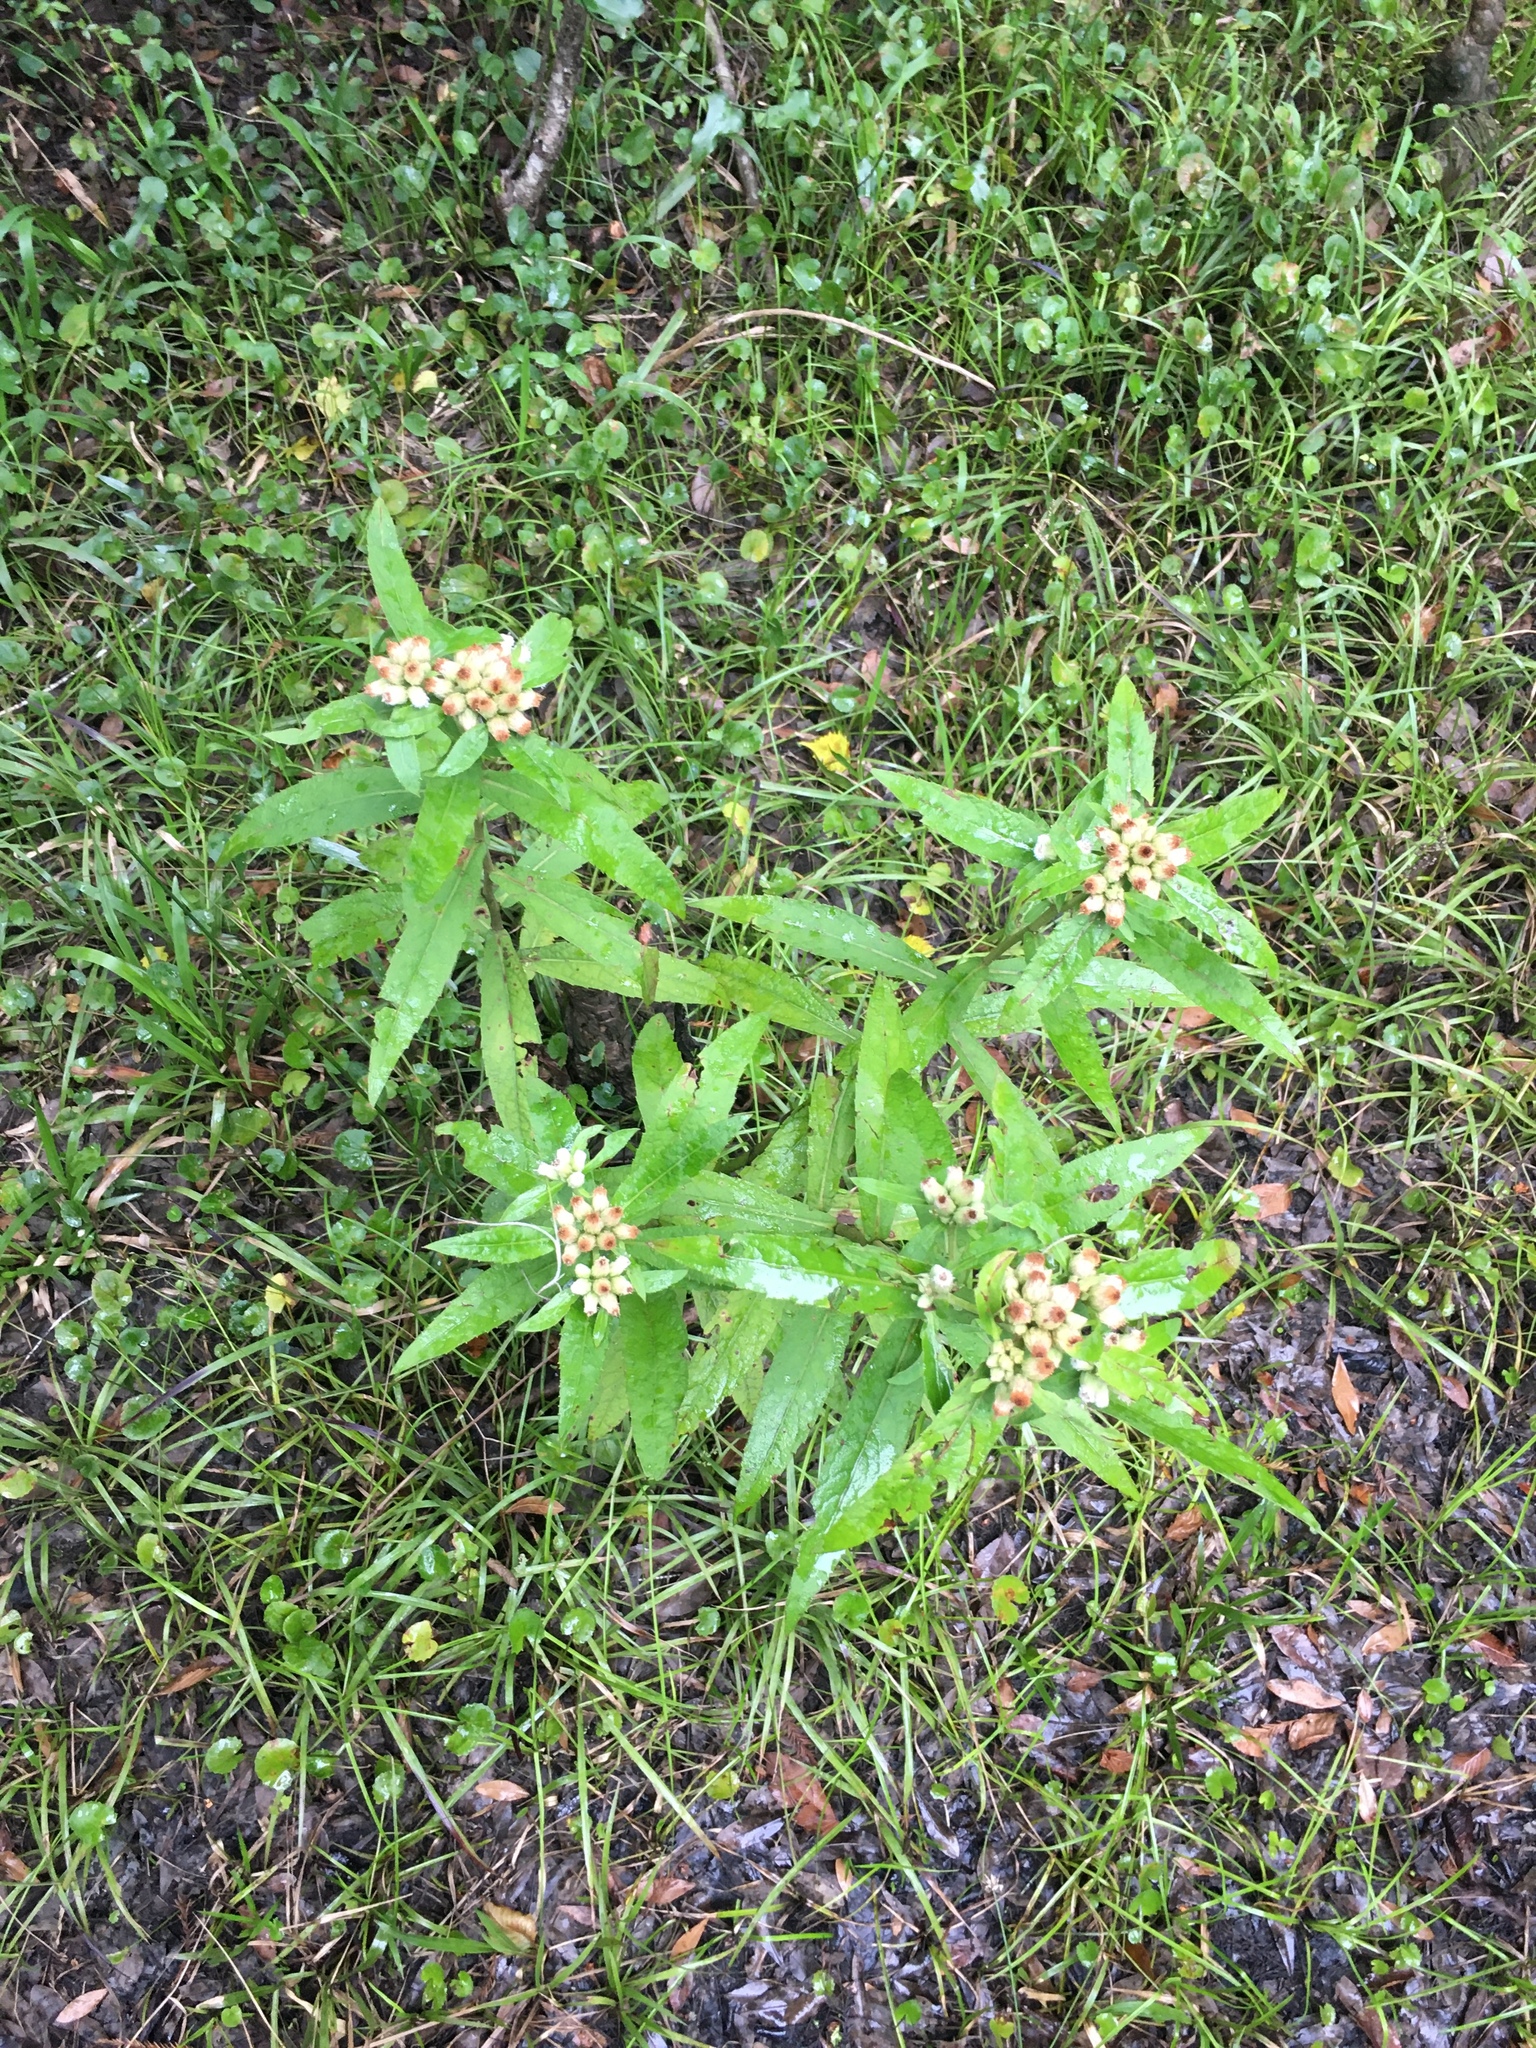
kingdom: Plantae
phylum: Tracheophyta
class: Magnoliopsida
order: Asterales
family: Asteraceae
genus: Pluchea
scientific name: Pluchea longifolia
